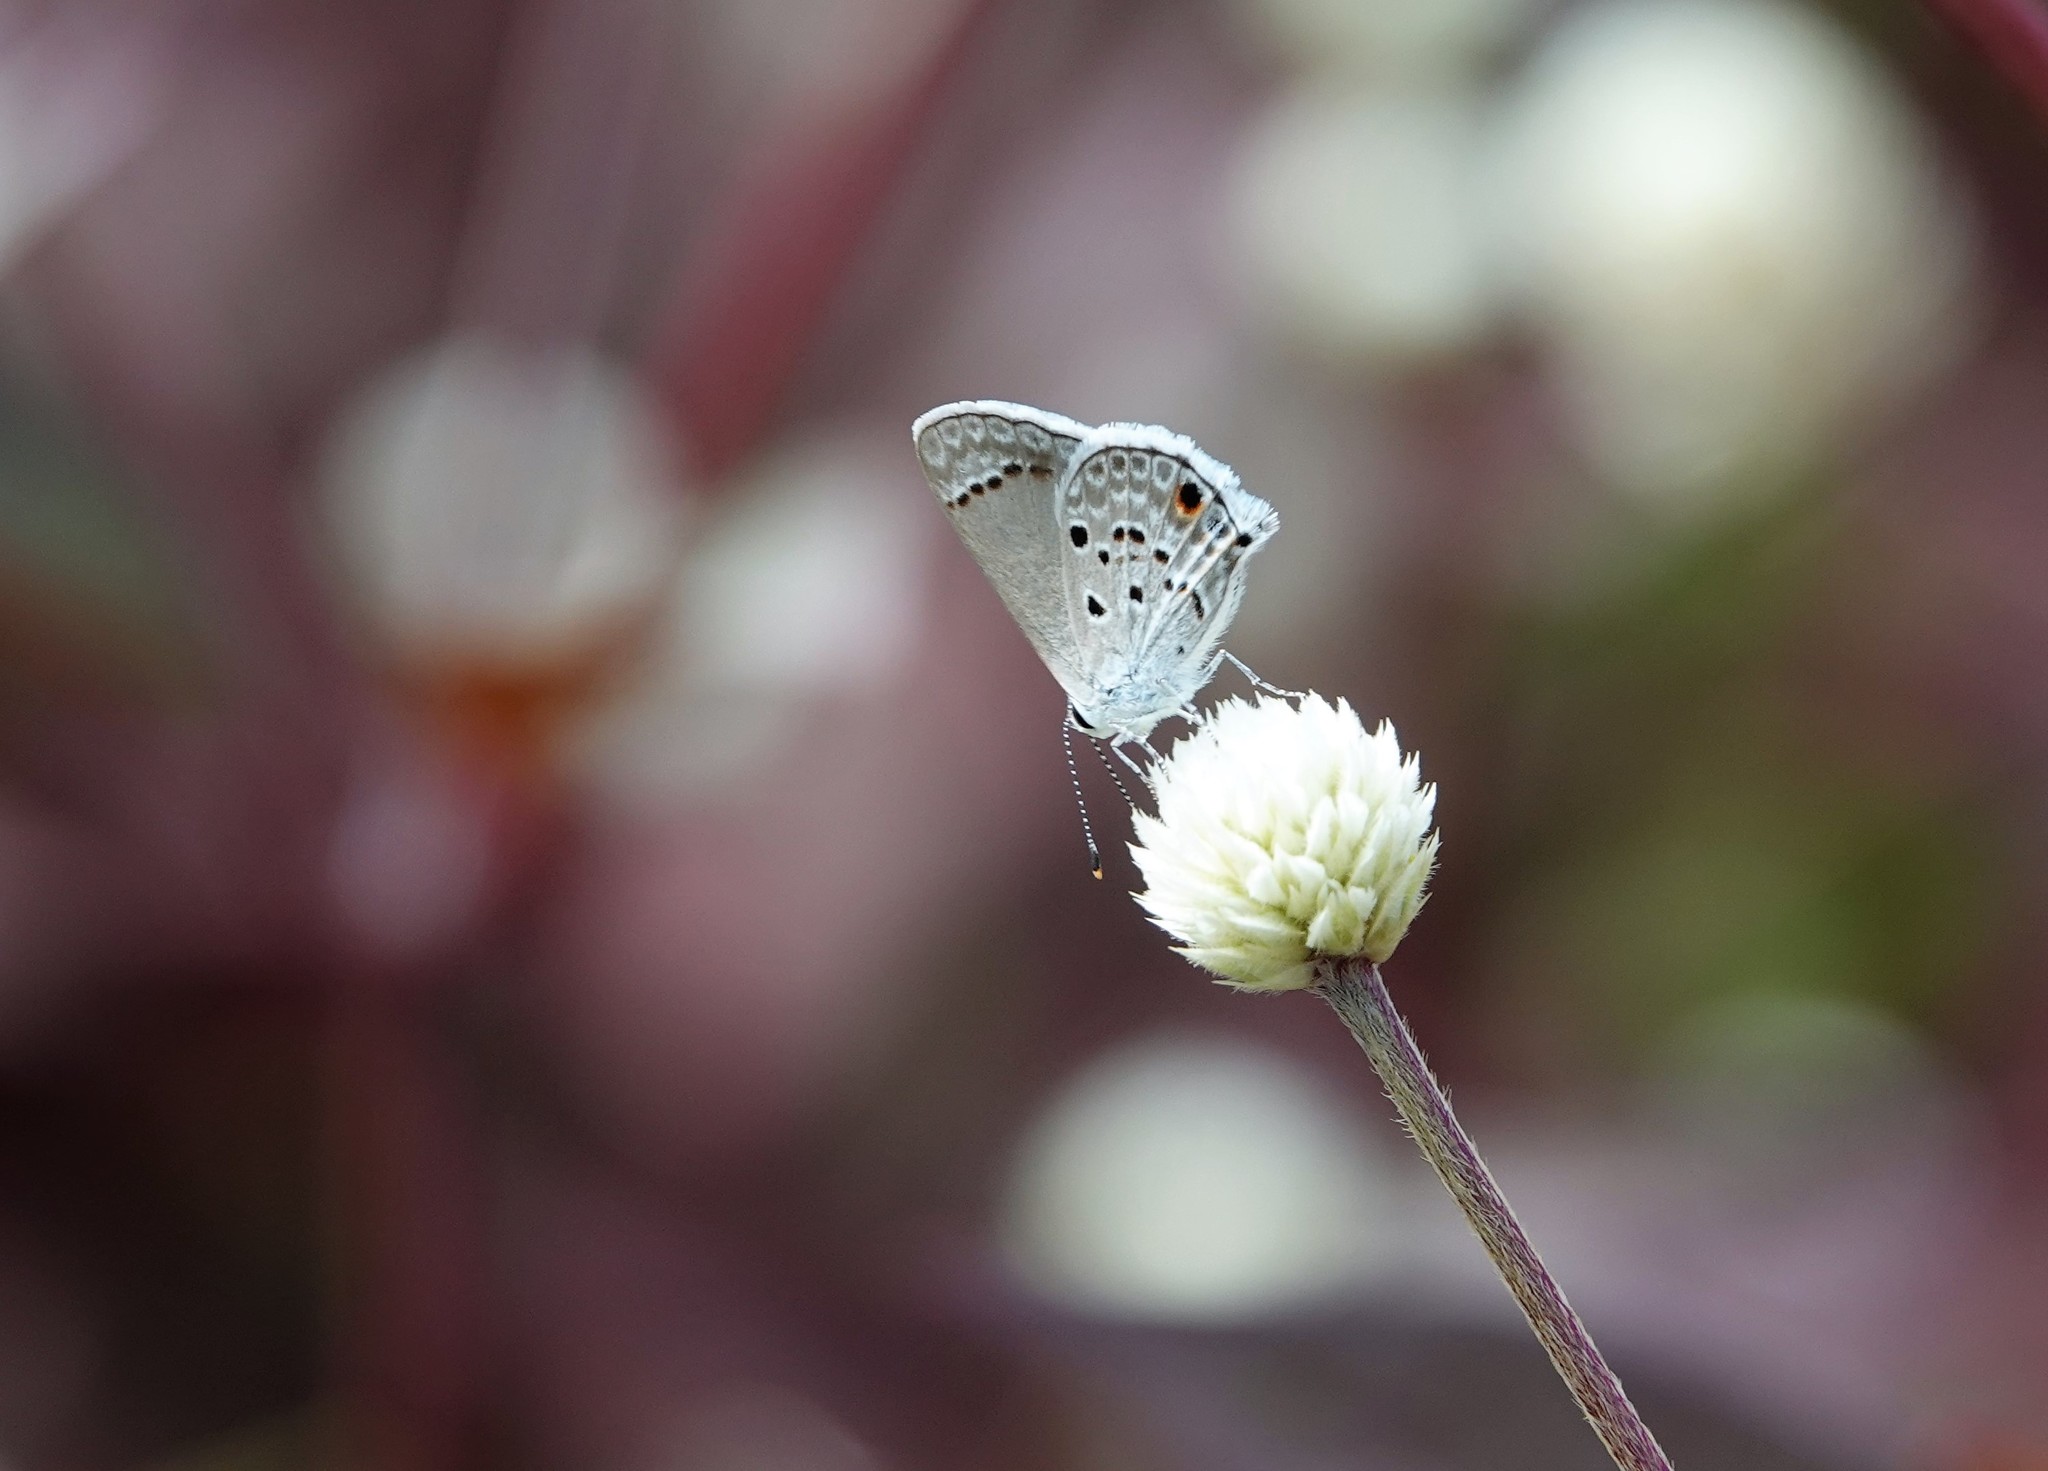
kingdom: Animalia
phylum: Arthropoda
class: Insecta
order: Lepidoptera
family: Lycaenidae
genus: Strymon
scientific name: Strymon bubastus
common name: Bubastes hairstreak
